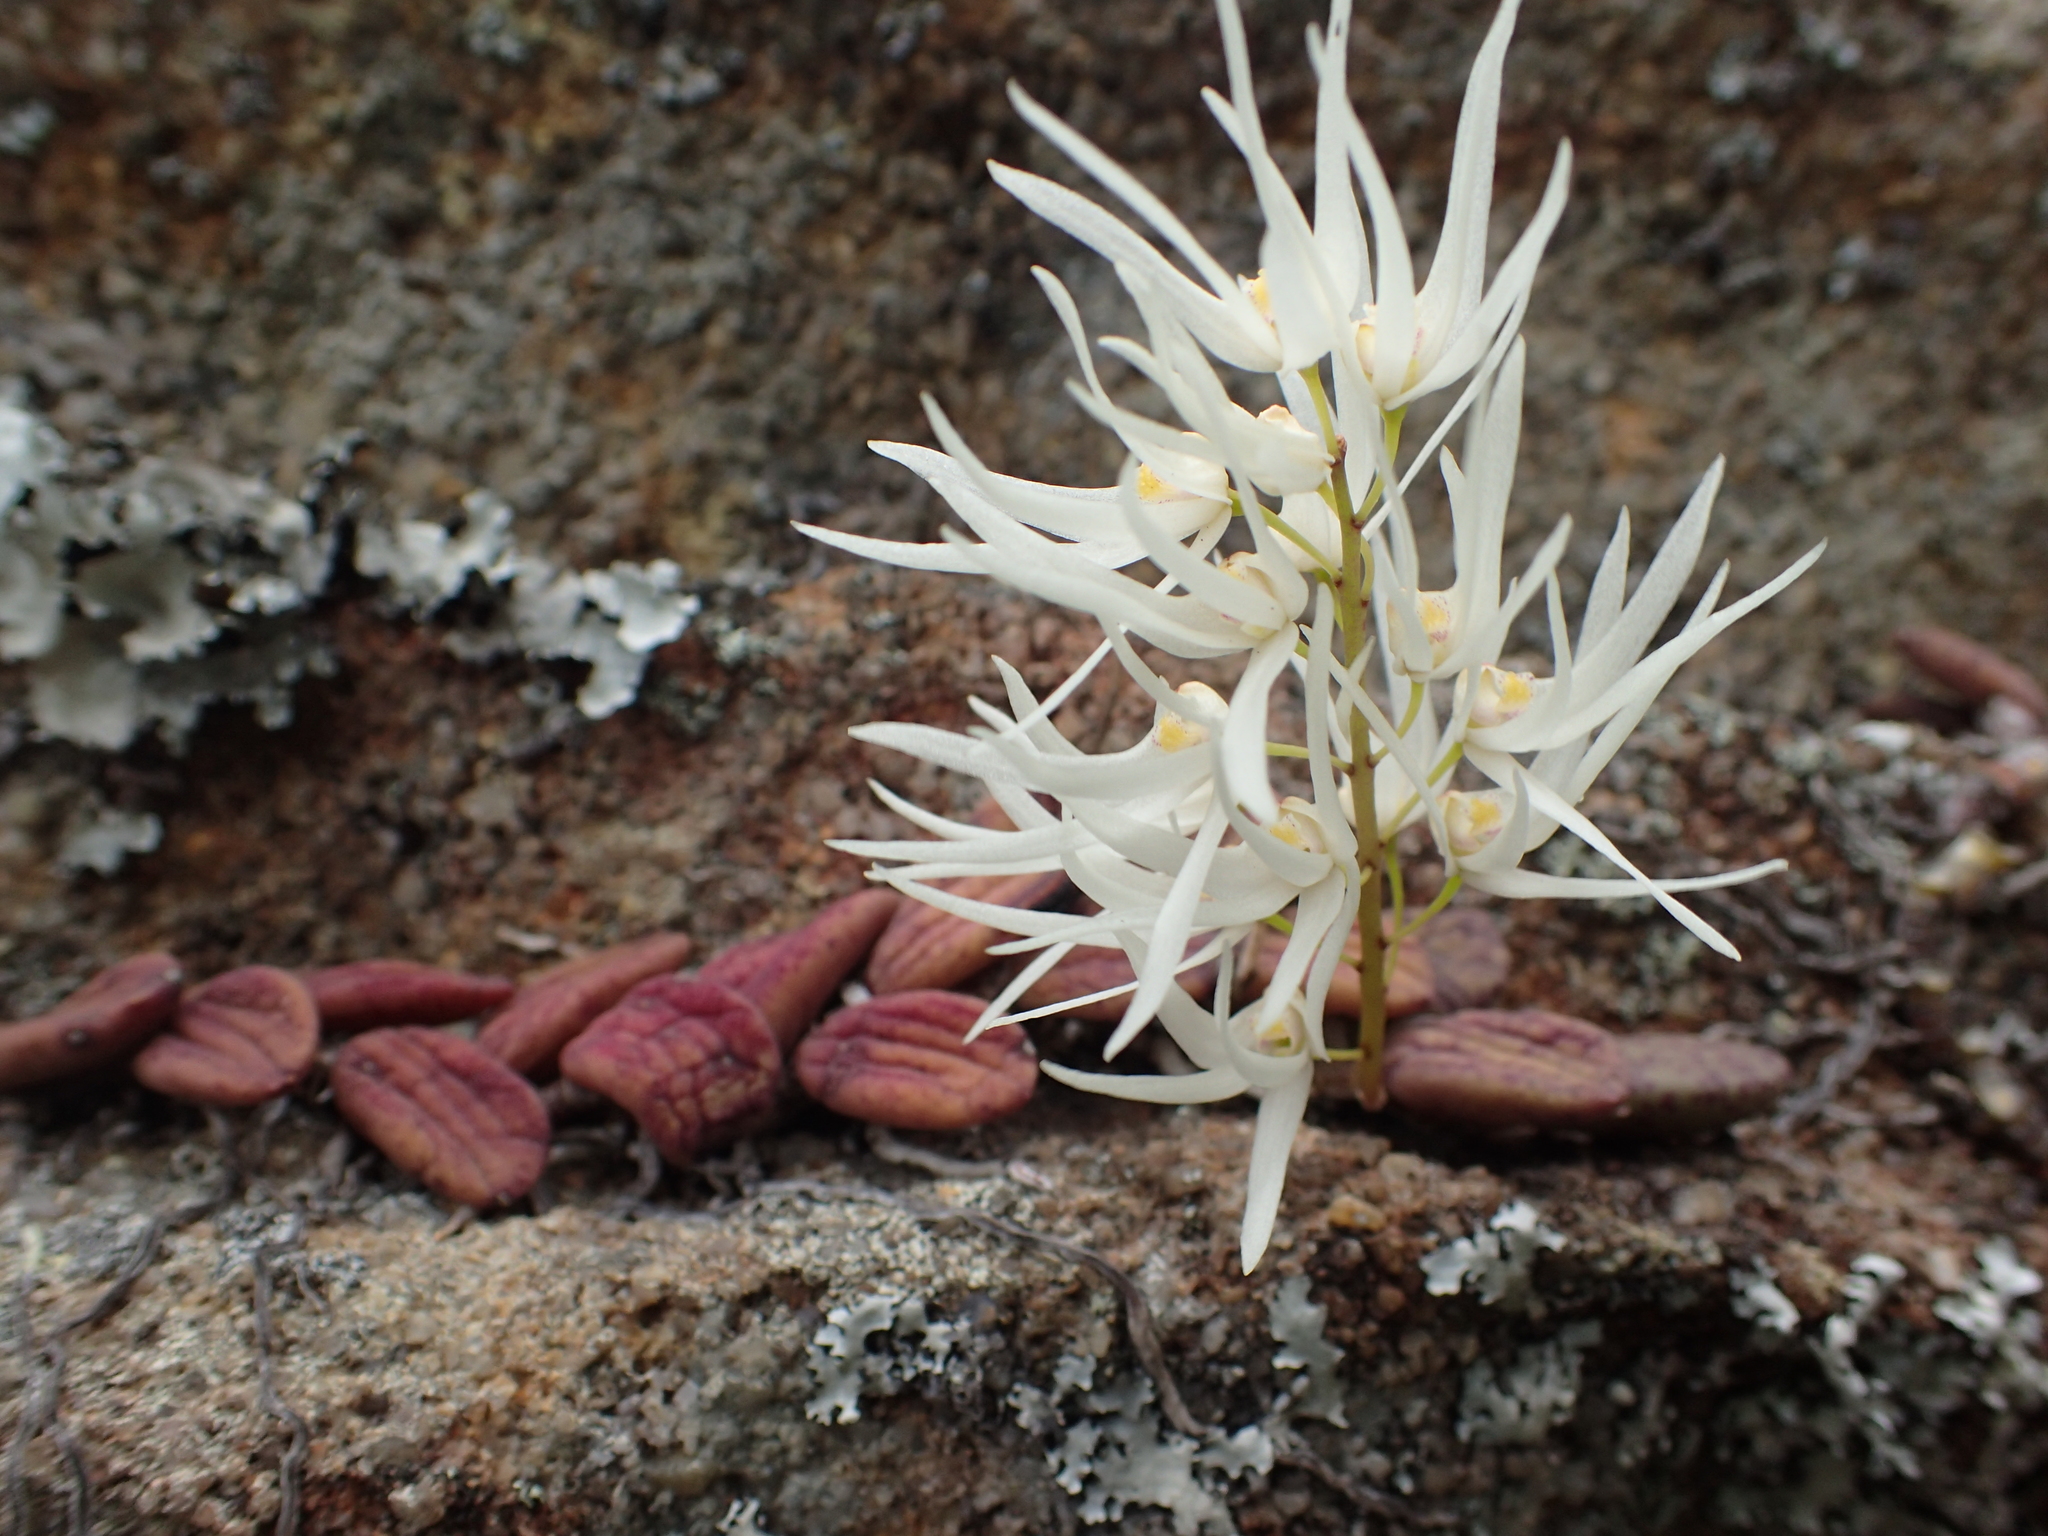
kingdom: Plantae
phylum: Tracheophyta
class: Liliopsida
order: Asparagales
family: Orchidaceae
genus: Dendrobium
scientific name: Dendrobium linguiforme
